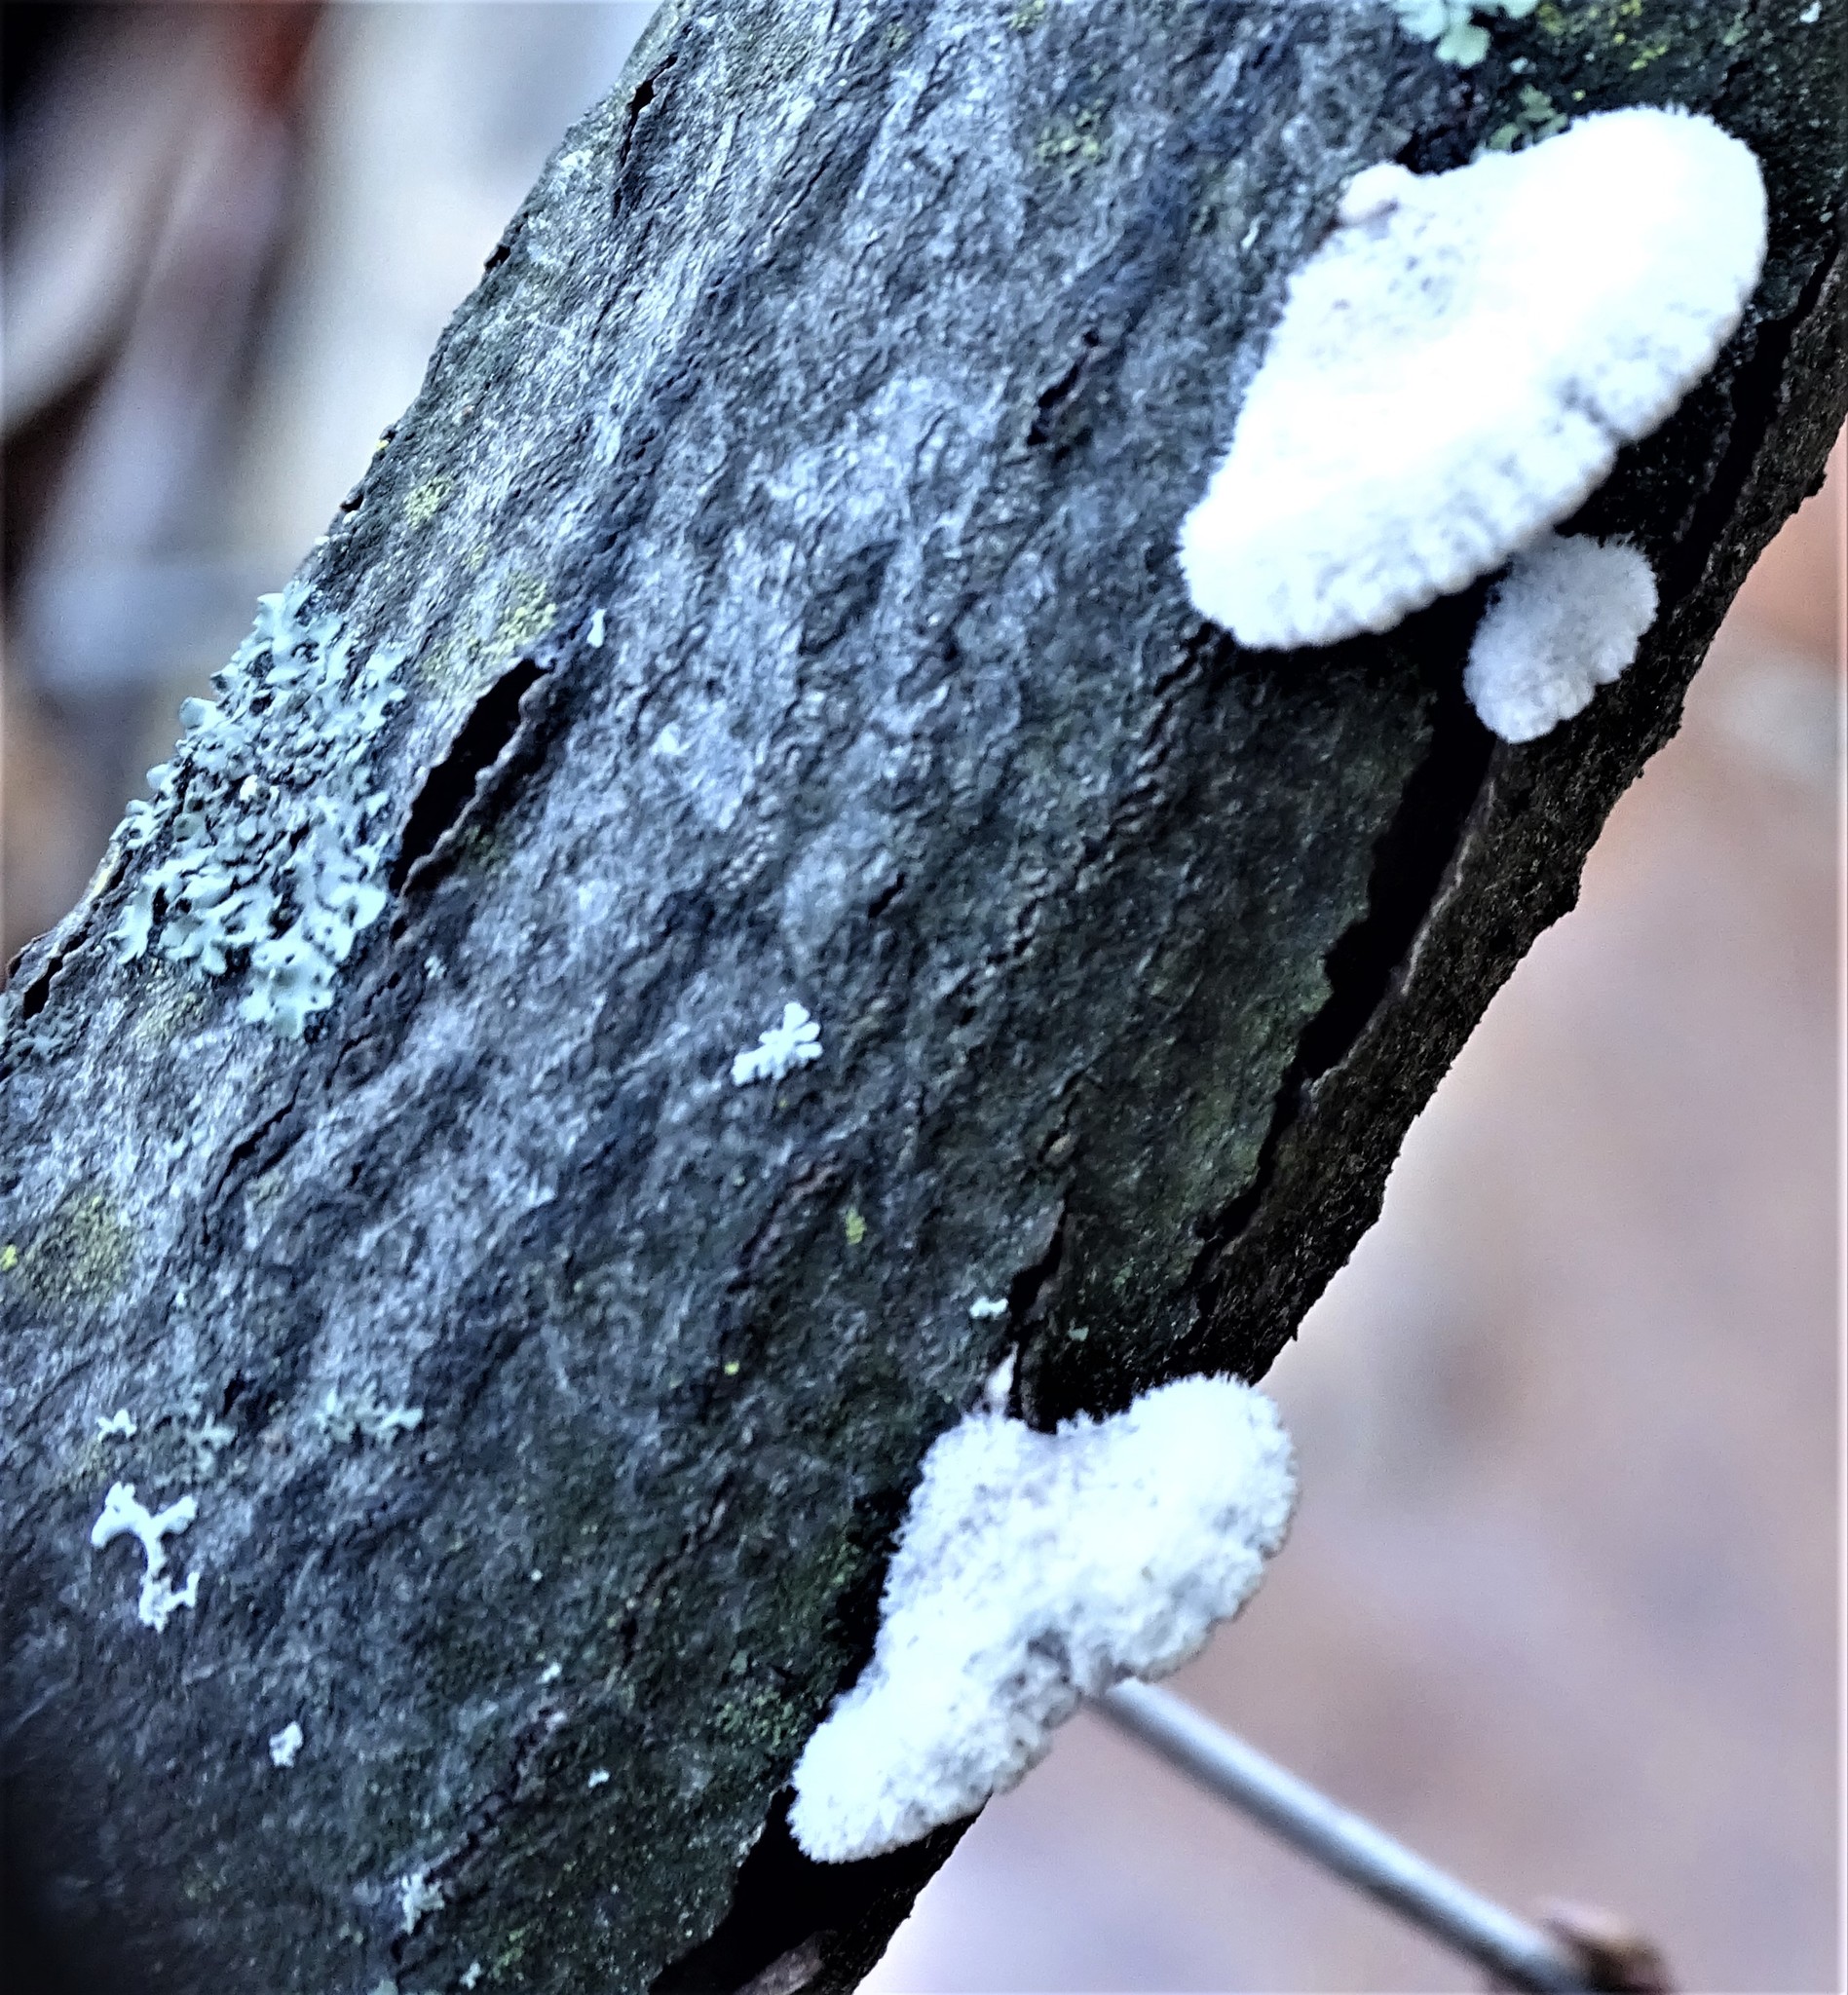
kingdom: Fungi
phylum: Basidiomycota
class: Agaricomycetes
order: Agaricales
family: Schizophyllaceae
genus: Schizophyllum
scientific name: Schizophyllum commune
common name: Common porecrust
